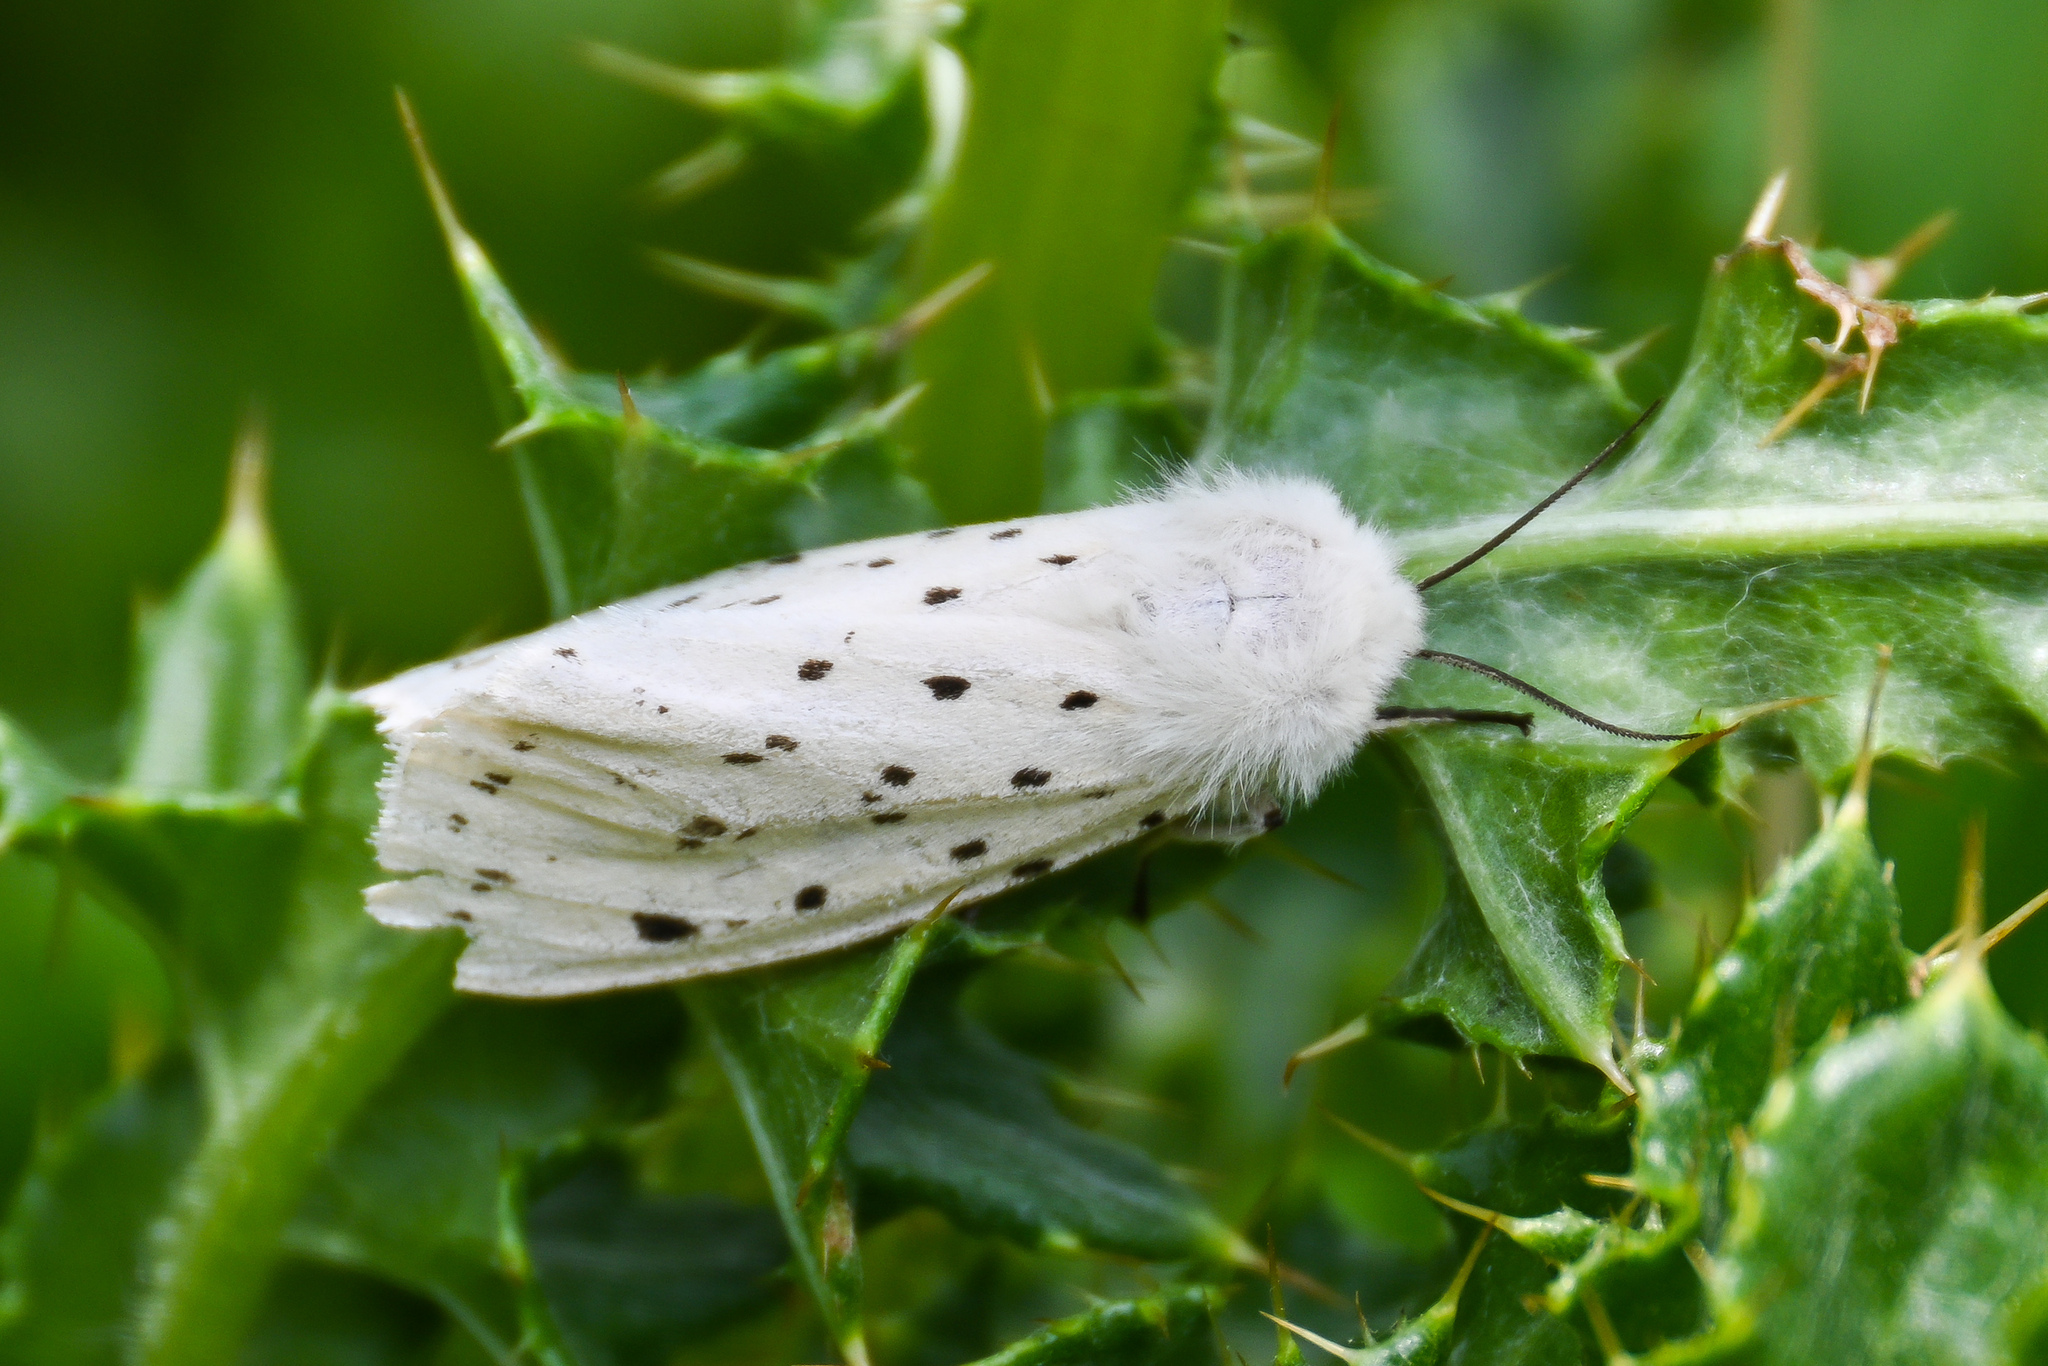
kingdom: Animalia
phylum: Arthropoda
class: Insecta
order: Lepidoptera
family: Erebidae
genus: Spilosoma
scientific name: Spilosoma lubricipeda
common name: White ermine
